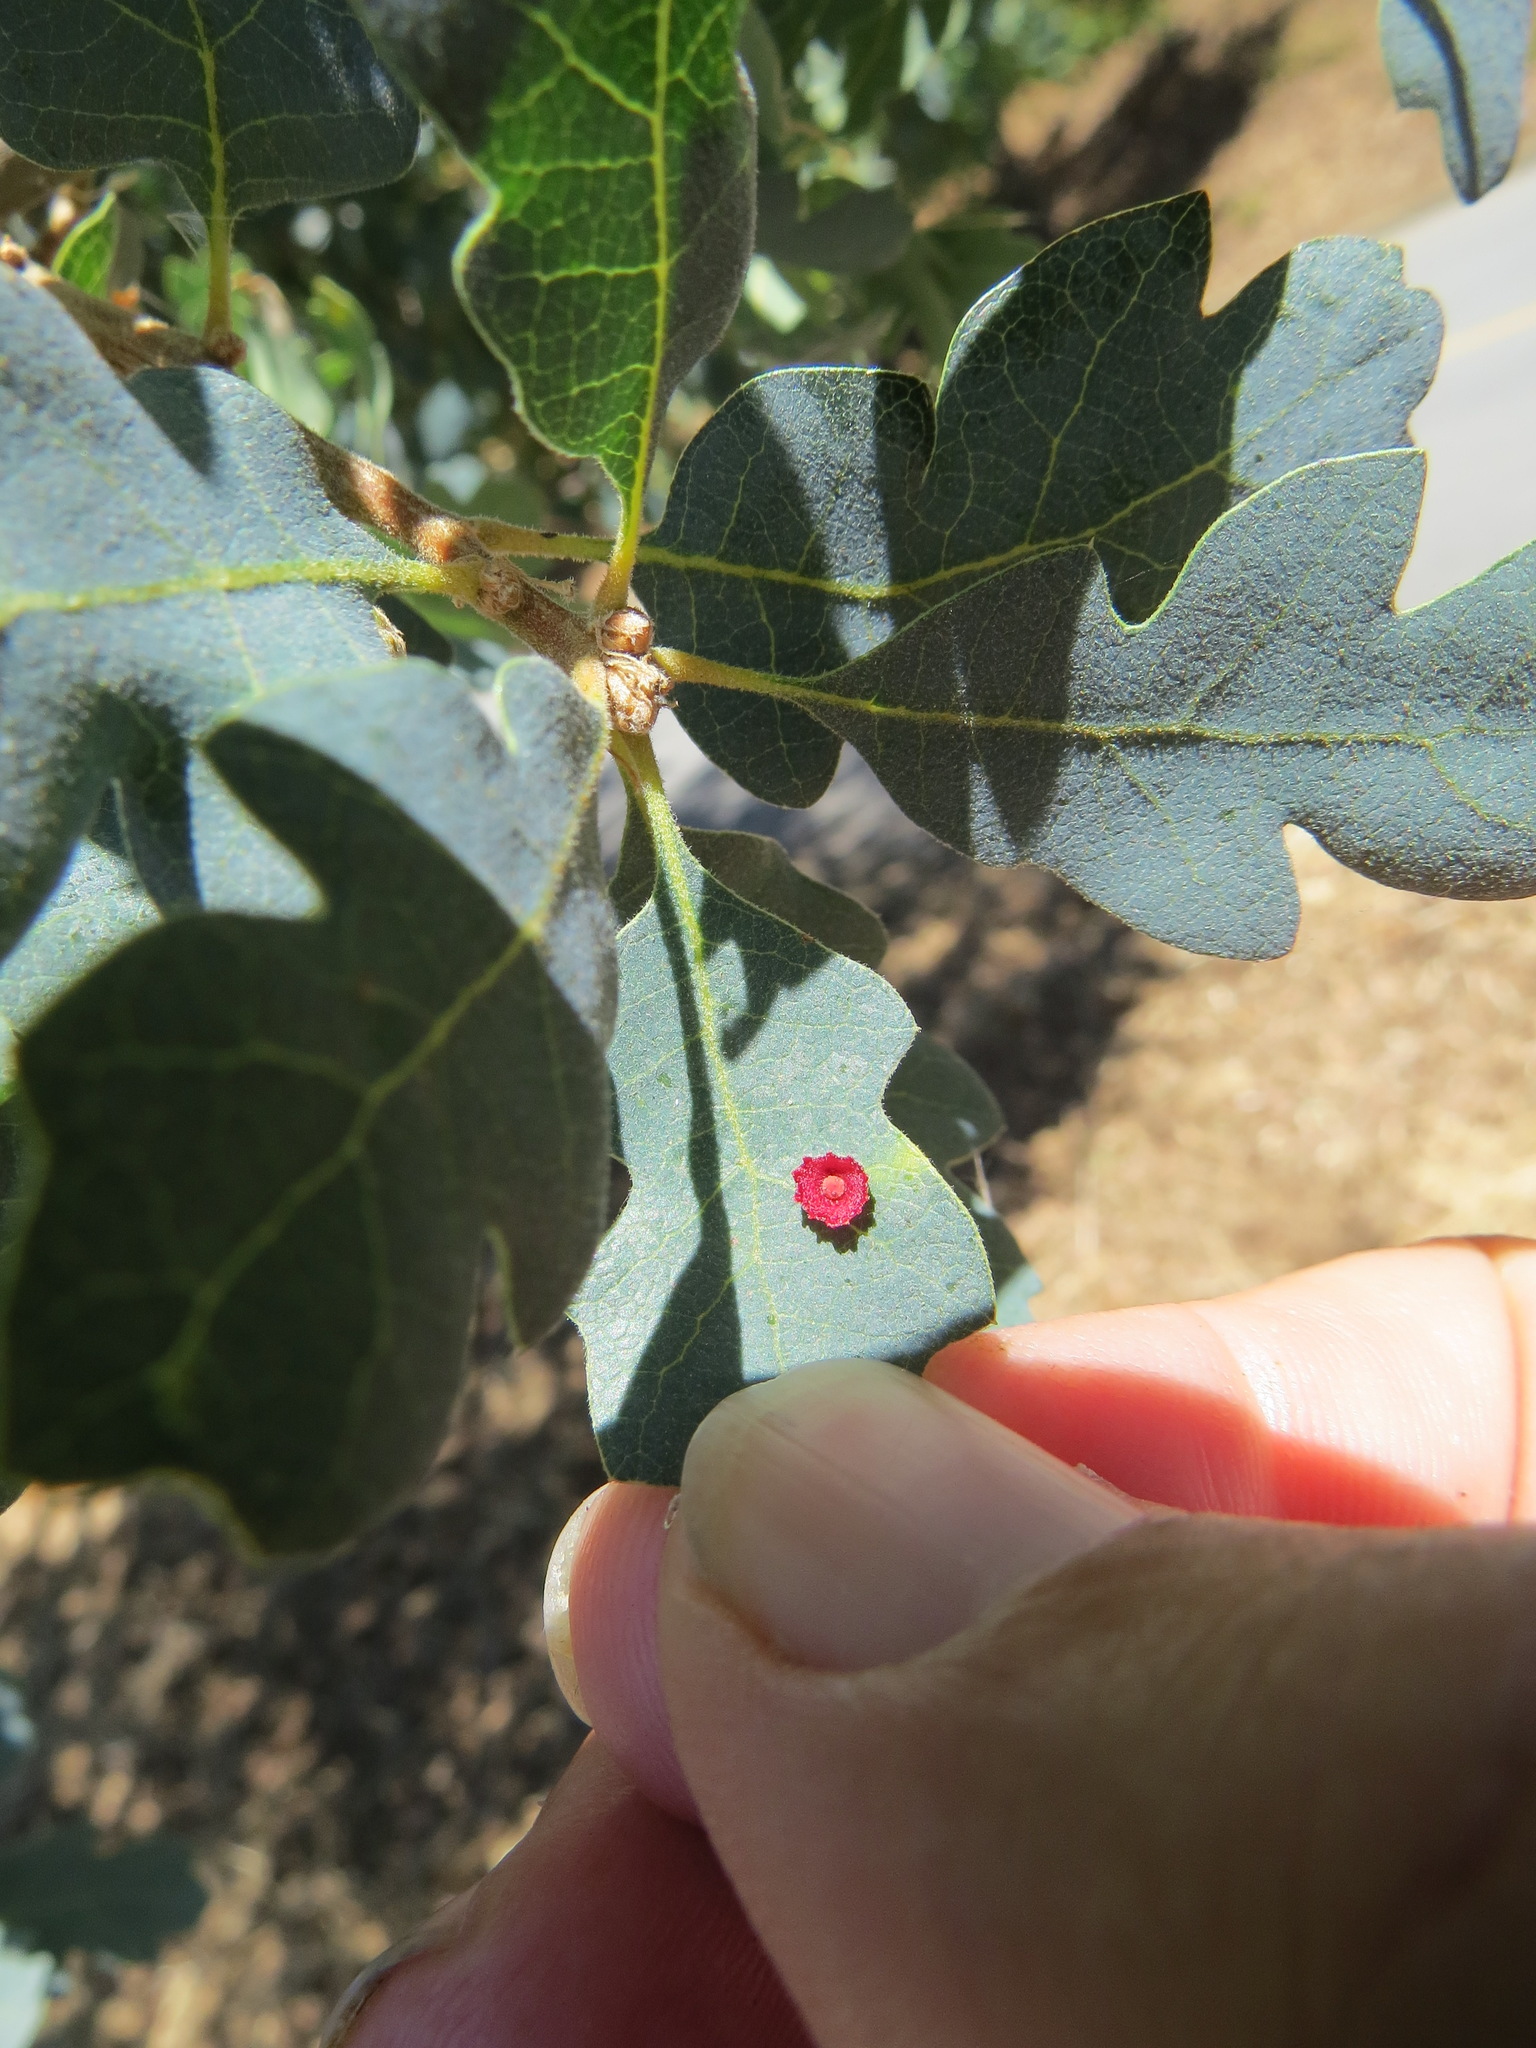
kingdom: Animalia
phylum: Arthropoda
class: Insecta
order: Hymenoptera
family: Cynipidae
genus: Andricus
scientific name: Andricus
